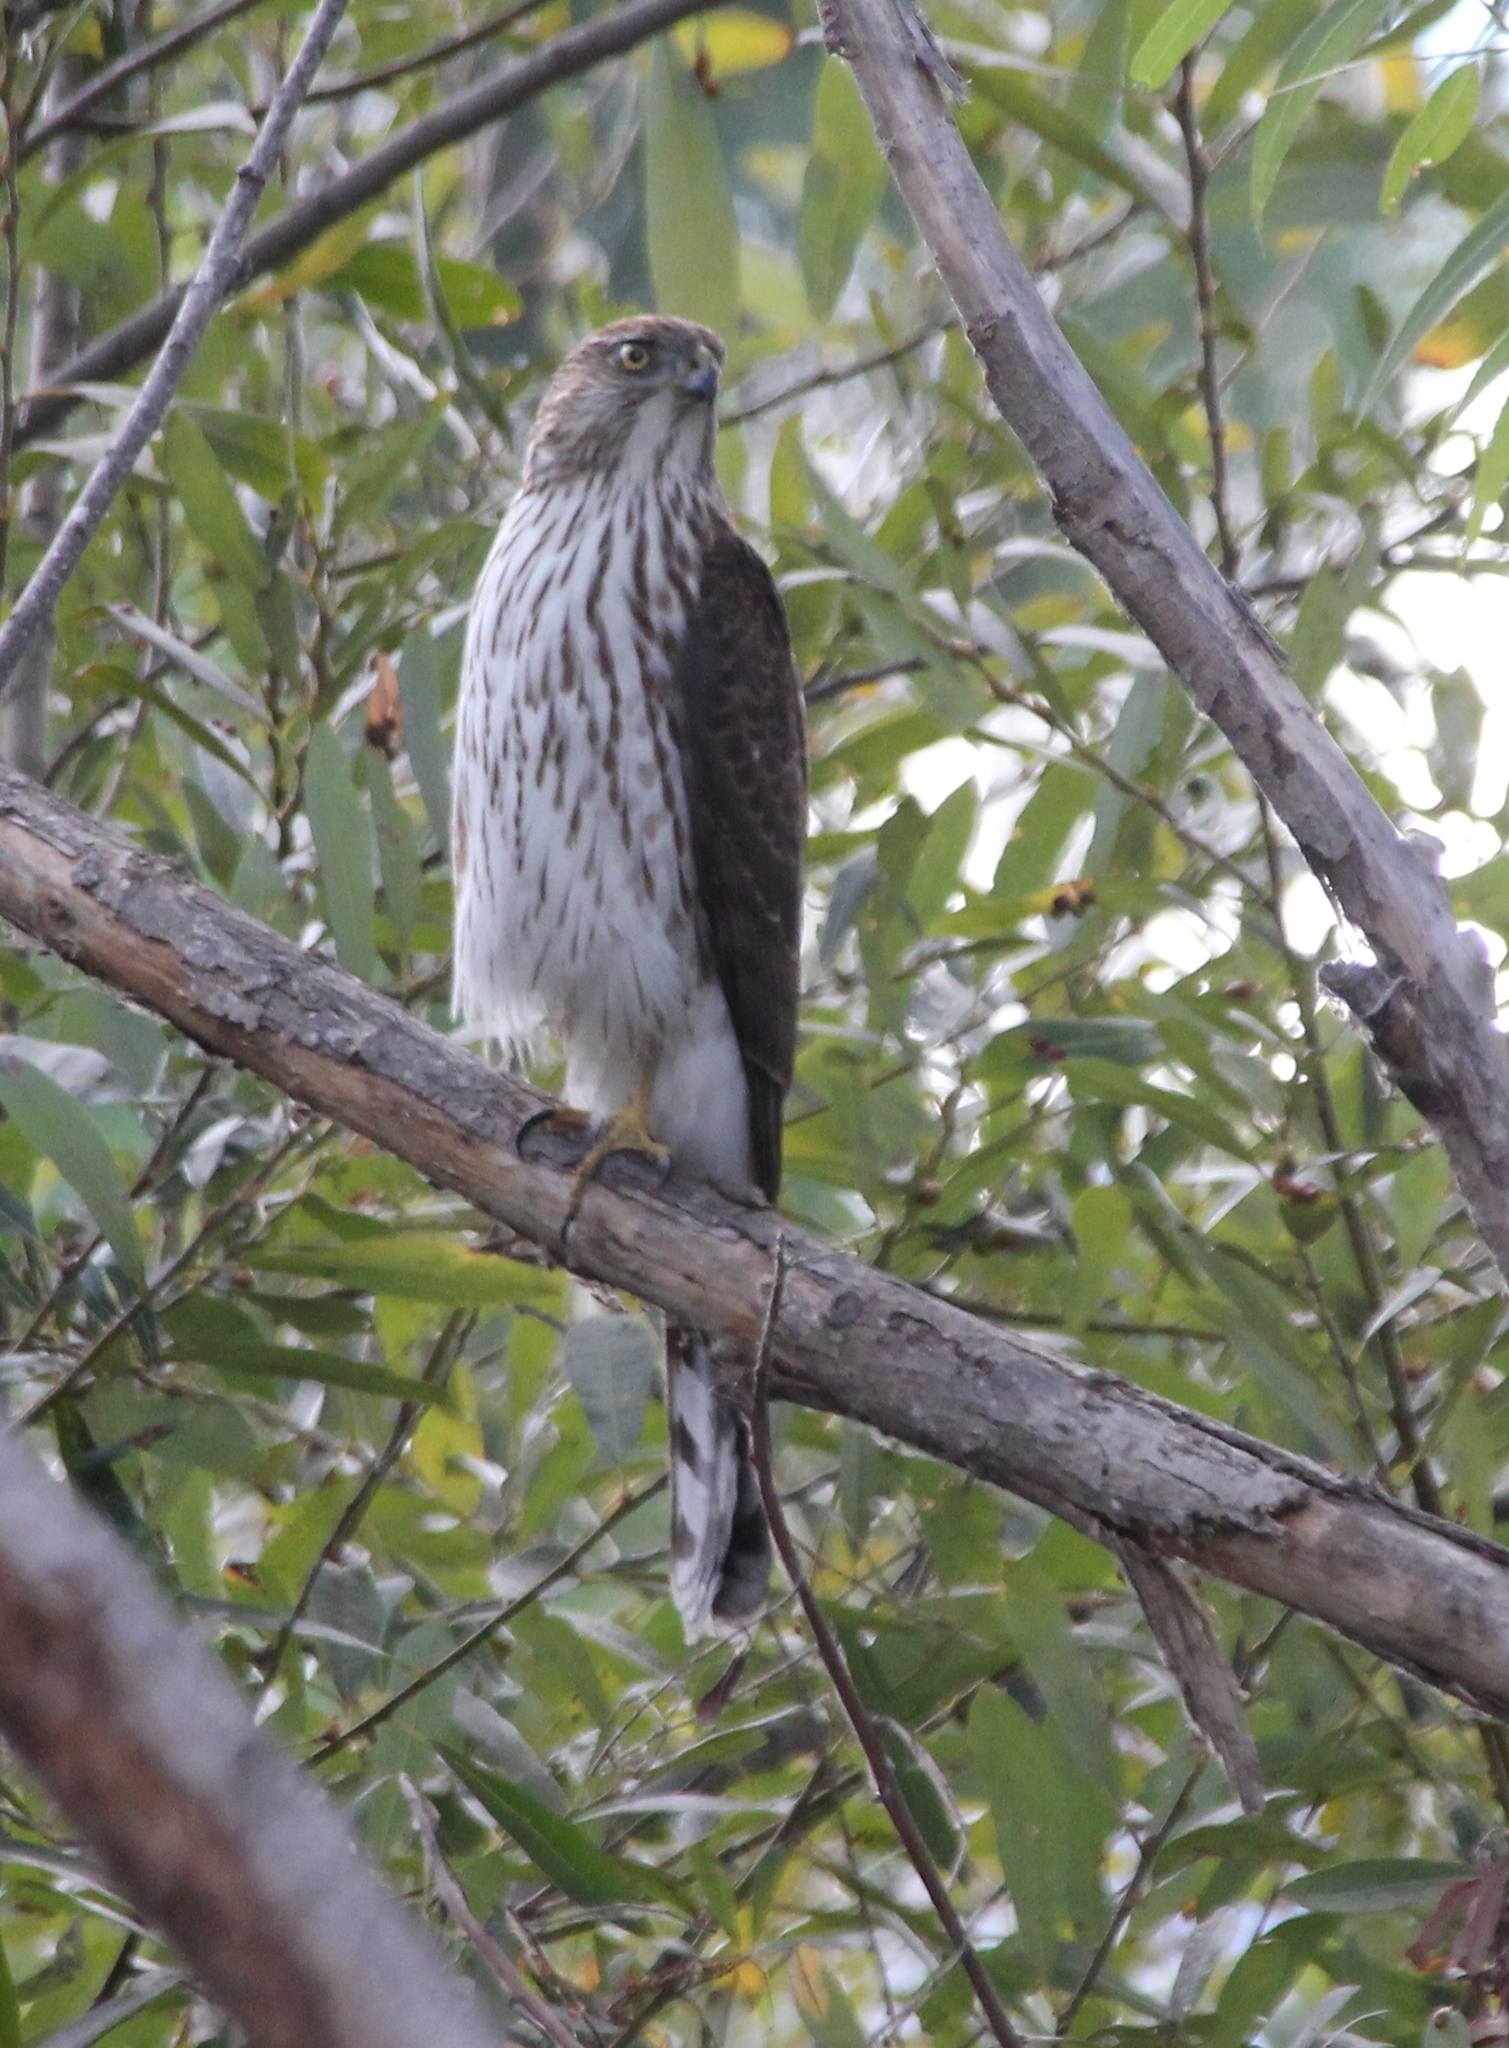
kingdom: Animalia
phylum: Chordata
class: Aves
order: Accipitriformes
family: Accipitridae
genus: Accipiter
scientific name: Accipiter cooperii
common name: Cooper's hawk
